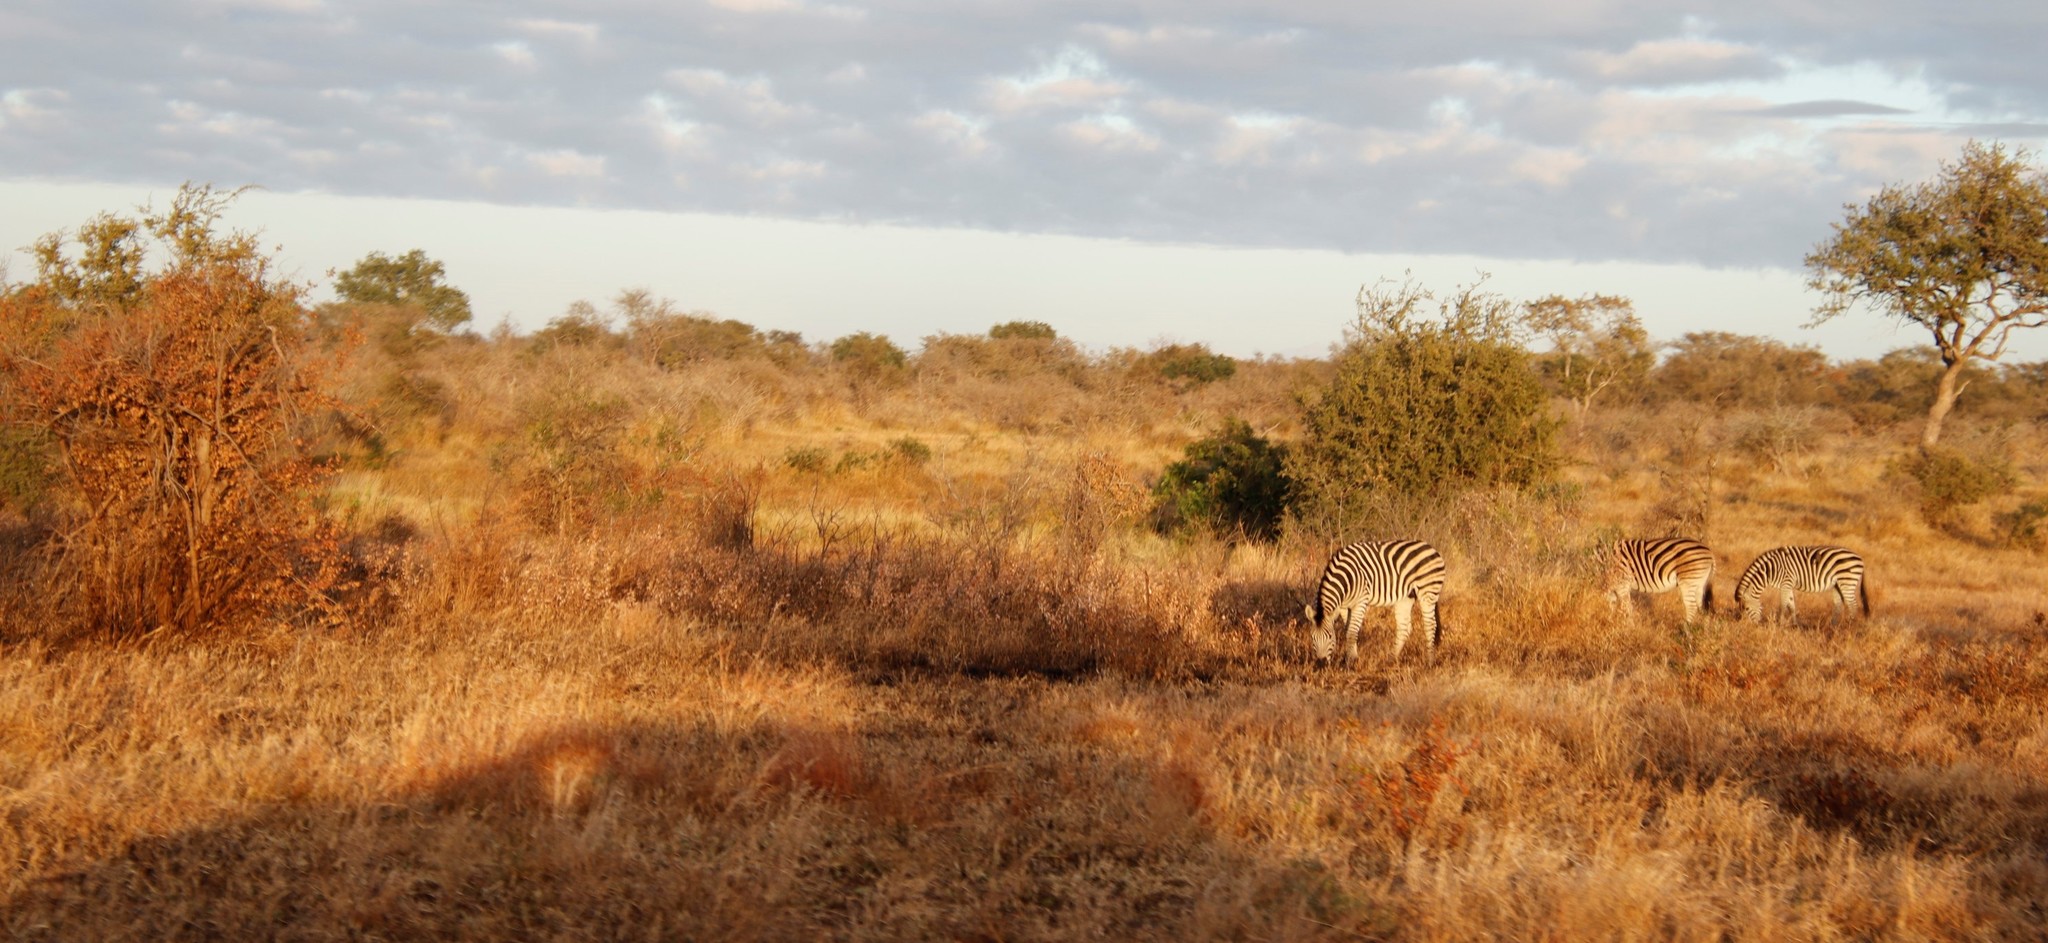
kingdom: Animalia
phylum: Chordata
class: Mammalia
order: Perissodactyla
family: Equidae
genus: Equus
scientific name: Equus quagga
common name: Plains zebra
